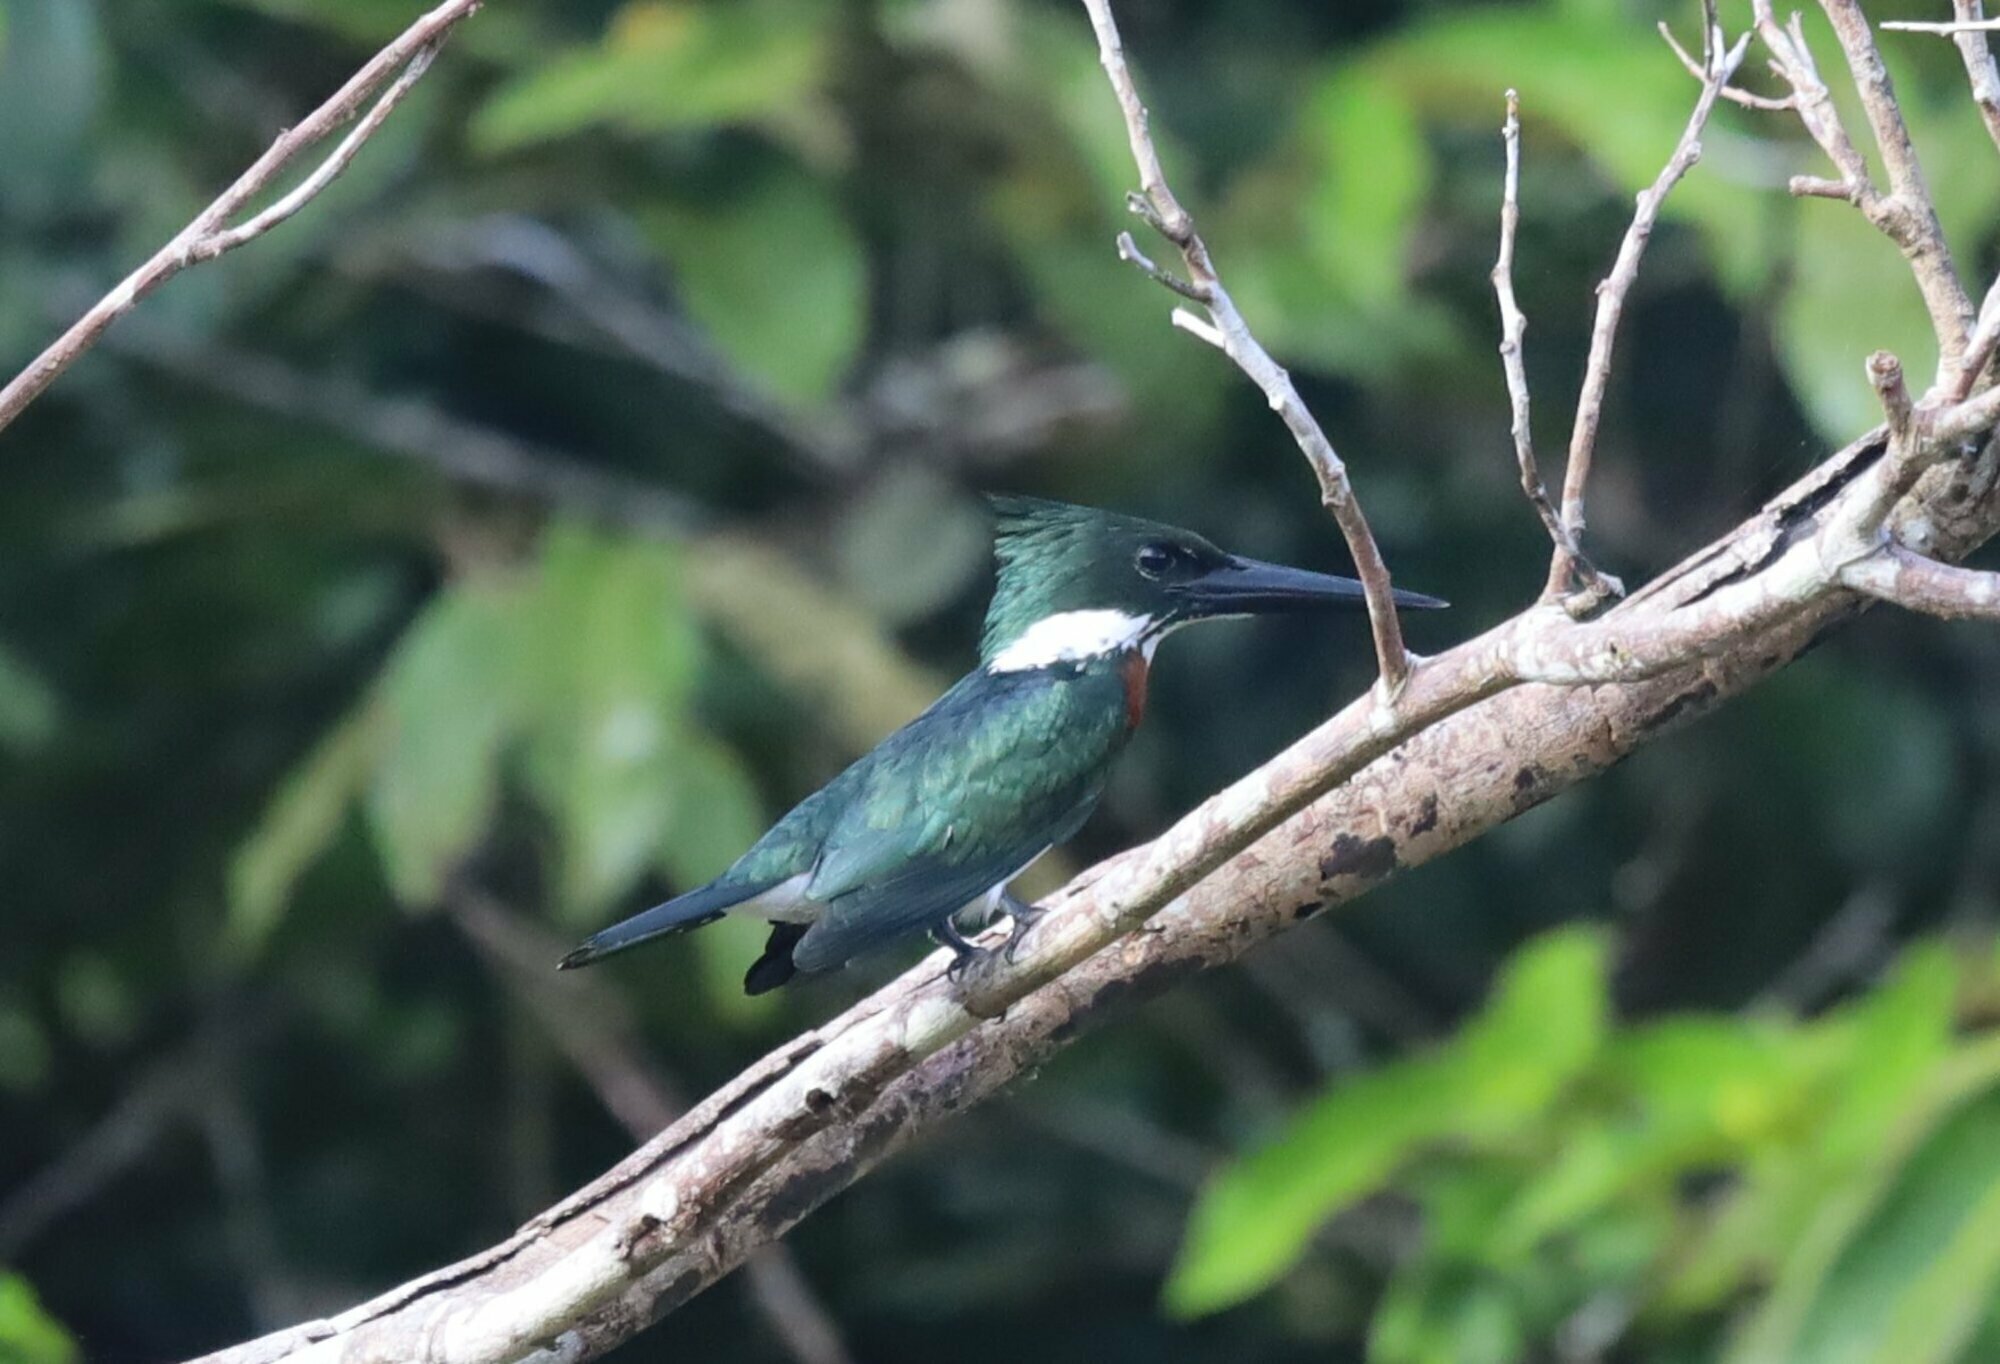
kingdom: Animalia
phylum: Chordata
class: Aves
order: Coraciiformes
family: Alcedinidae
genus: Chloroceryle
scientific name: Chloroceryle amazona
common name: Amazon kingfisher
